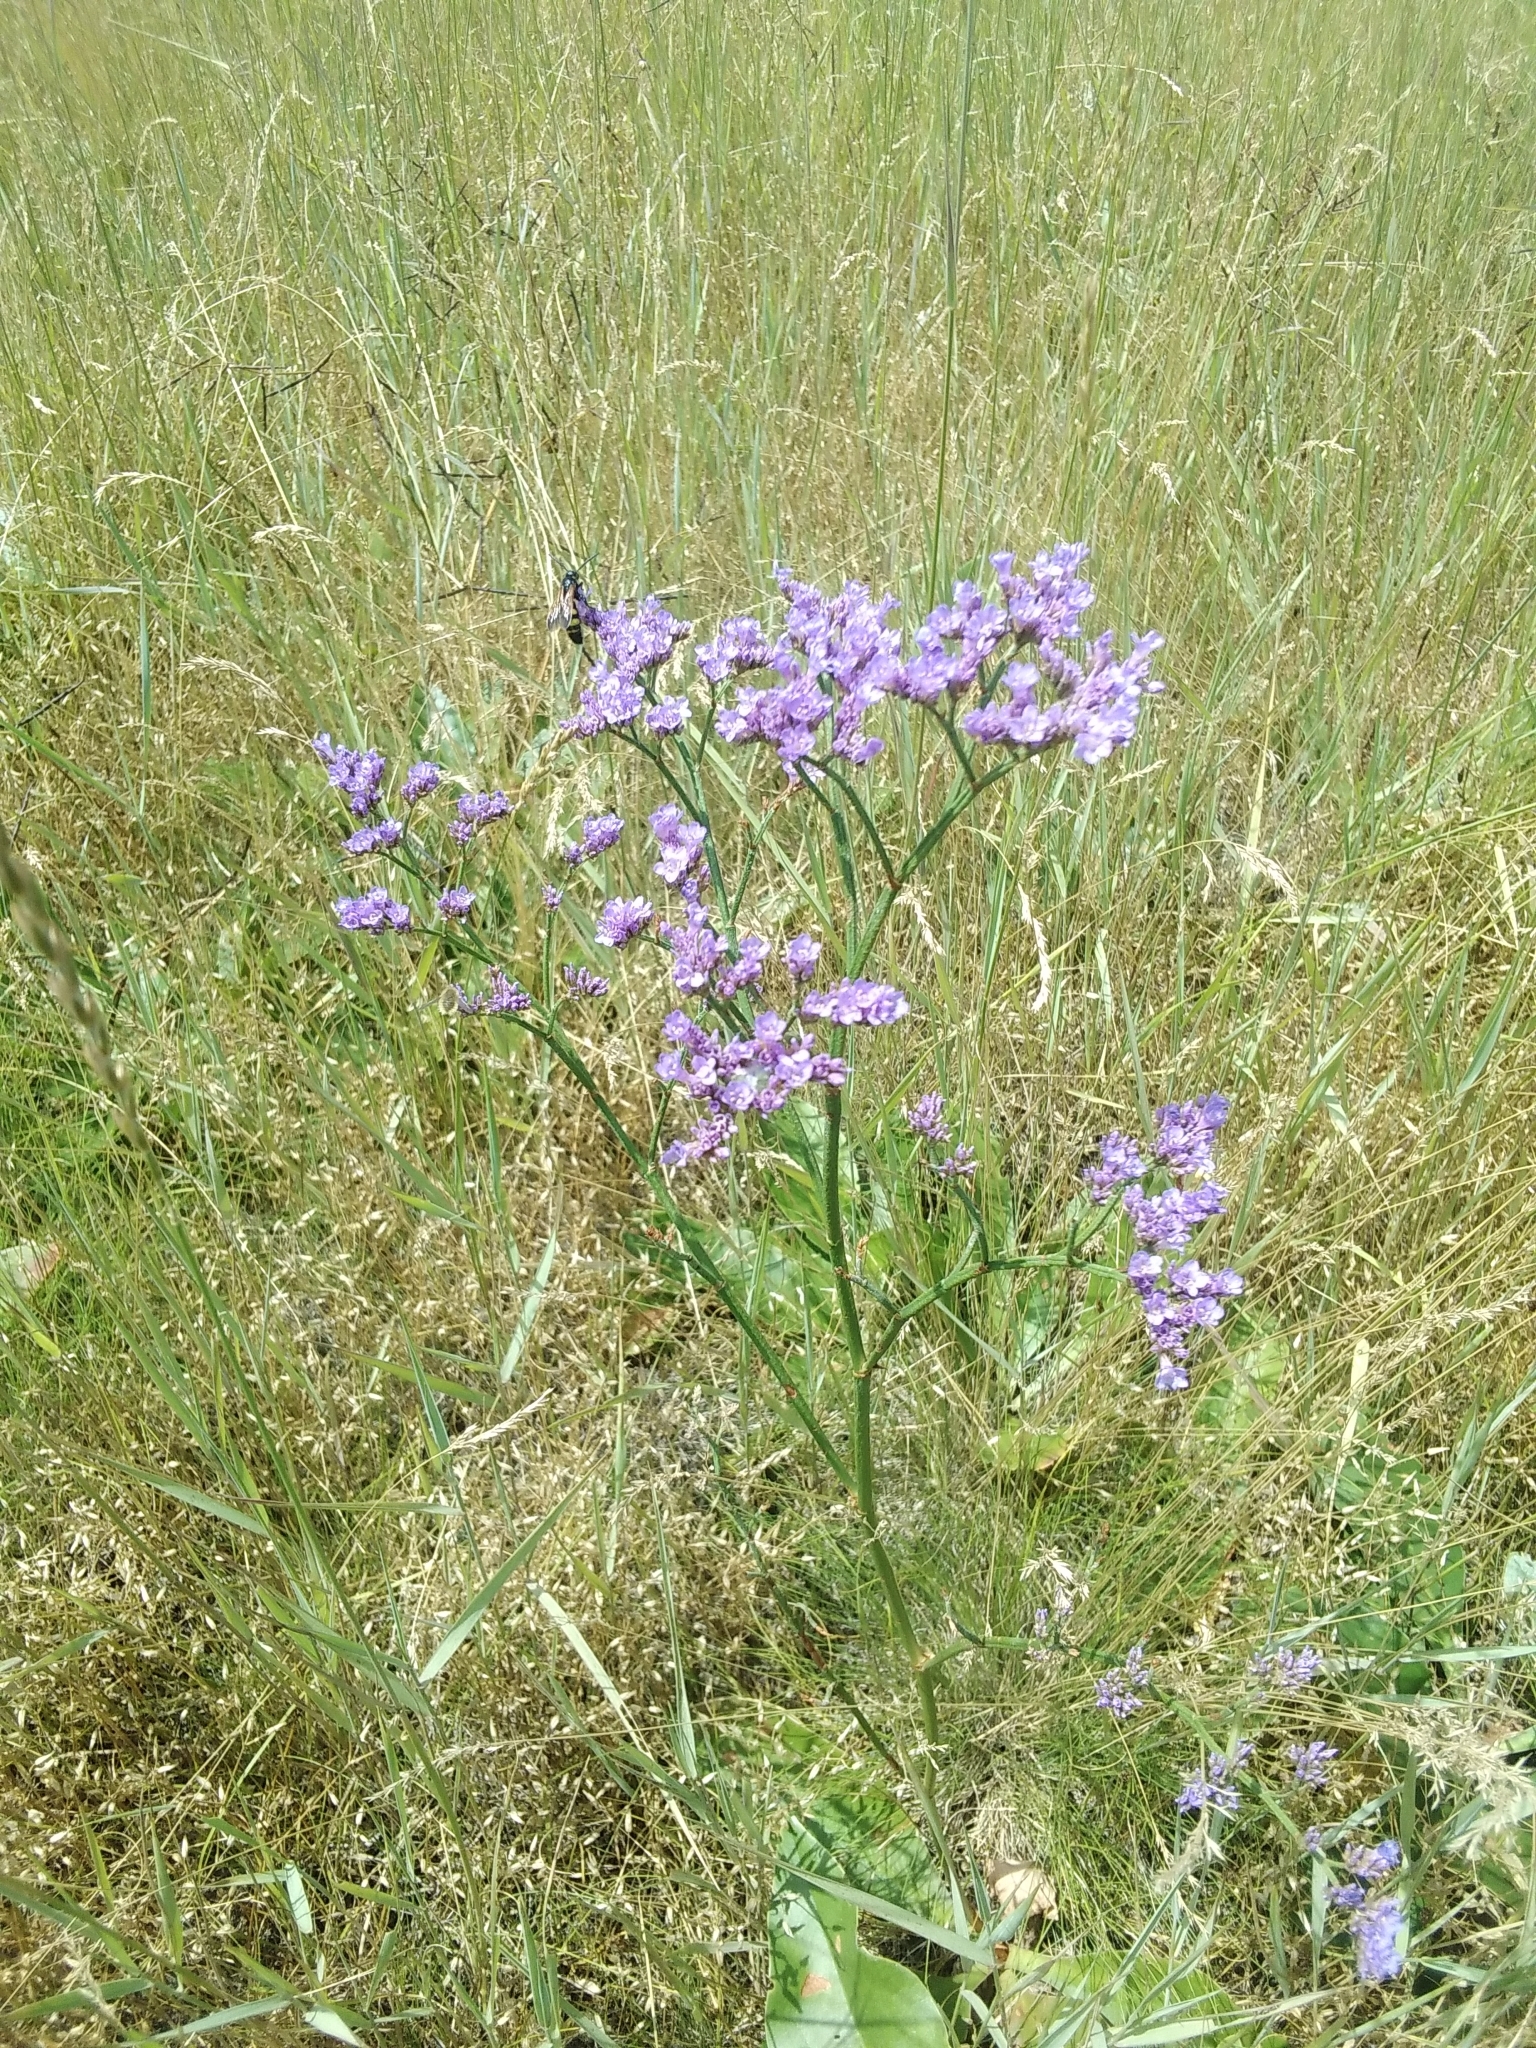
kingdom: Plantae
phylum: Tracheophyta
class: Magnoliopsida
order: Caryophyllales
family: Plumbaginaceae
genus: Limonium
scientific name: Limonium gmelini
